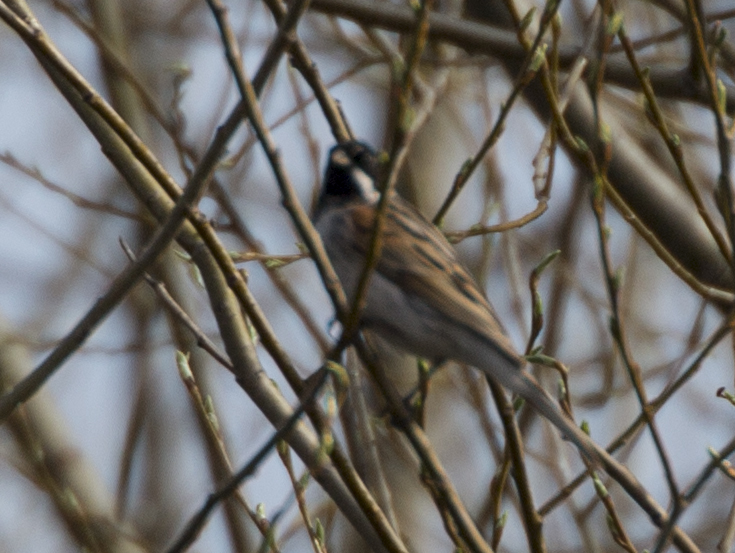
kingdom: Animalia
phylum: Chordata
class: Aves
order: Passeriformes
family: Emberizidae
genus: Emberiza
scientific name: Emberiza schoeniclus
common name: Reed bunting
